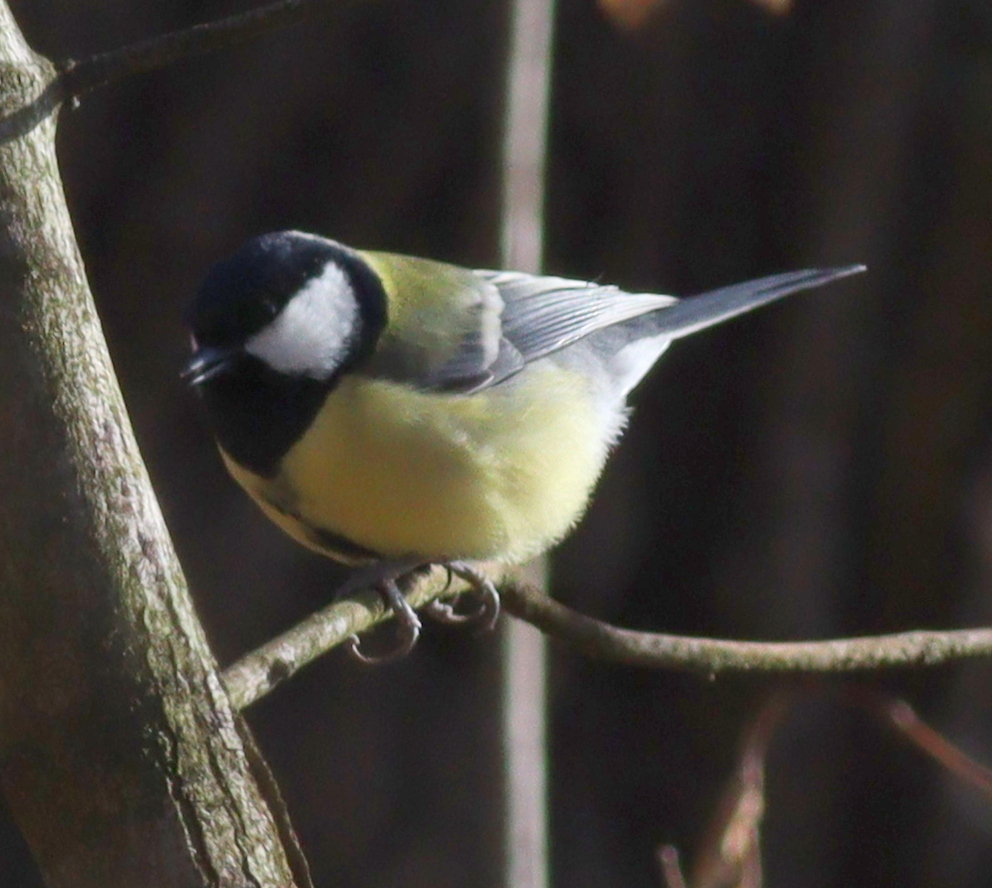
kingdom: Animalia
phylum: Chordata
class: Aves
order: Passeriformes
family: Paridae
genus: Parus
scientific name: Parus major
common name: Great tit
